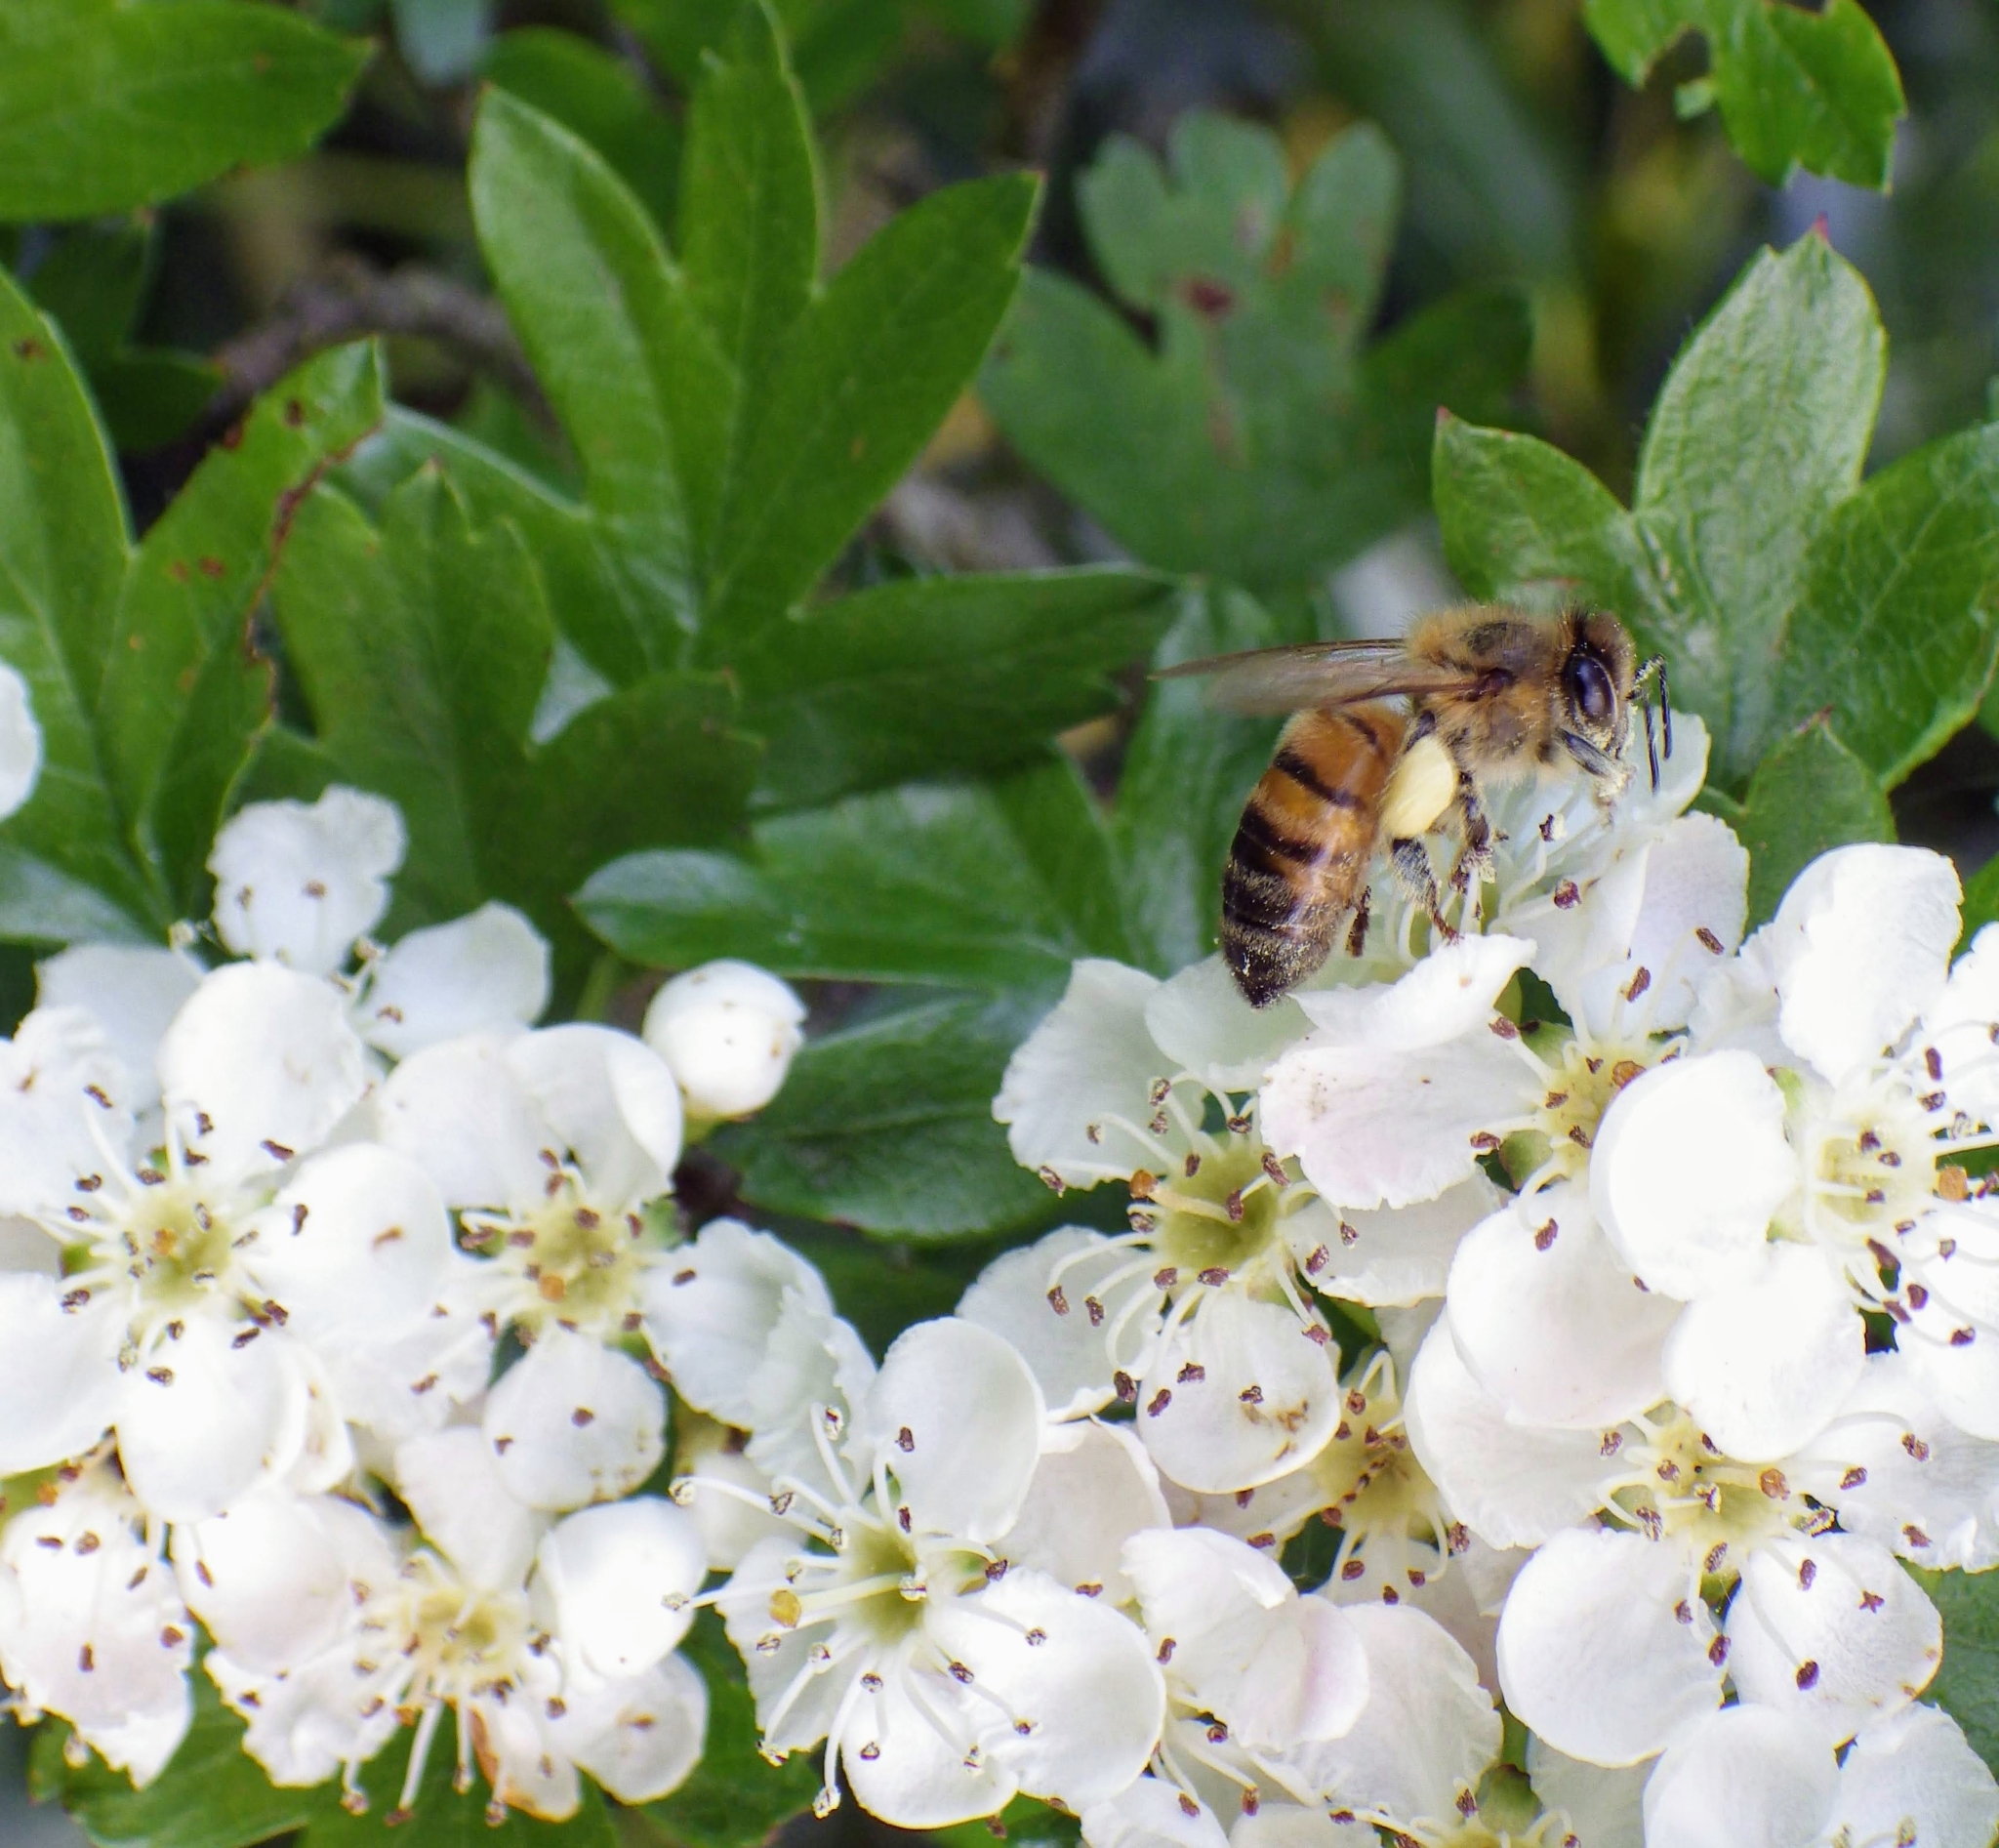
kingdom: Animalia
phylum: Arthropoda
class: Insecta
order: Hymenoptera
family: Apidae
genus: Apis
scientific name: Apis mellifera
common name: Honey bee
